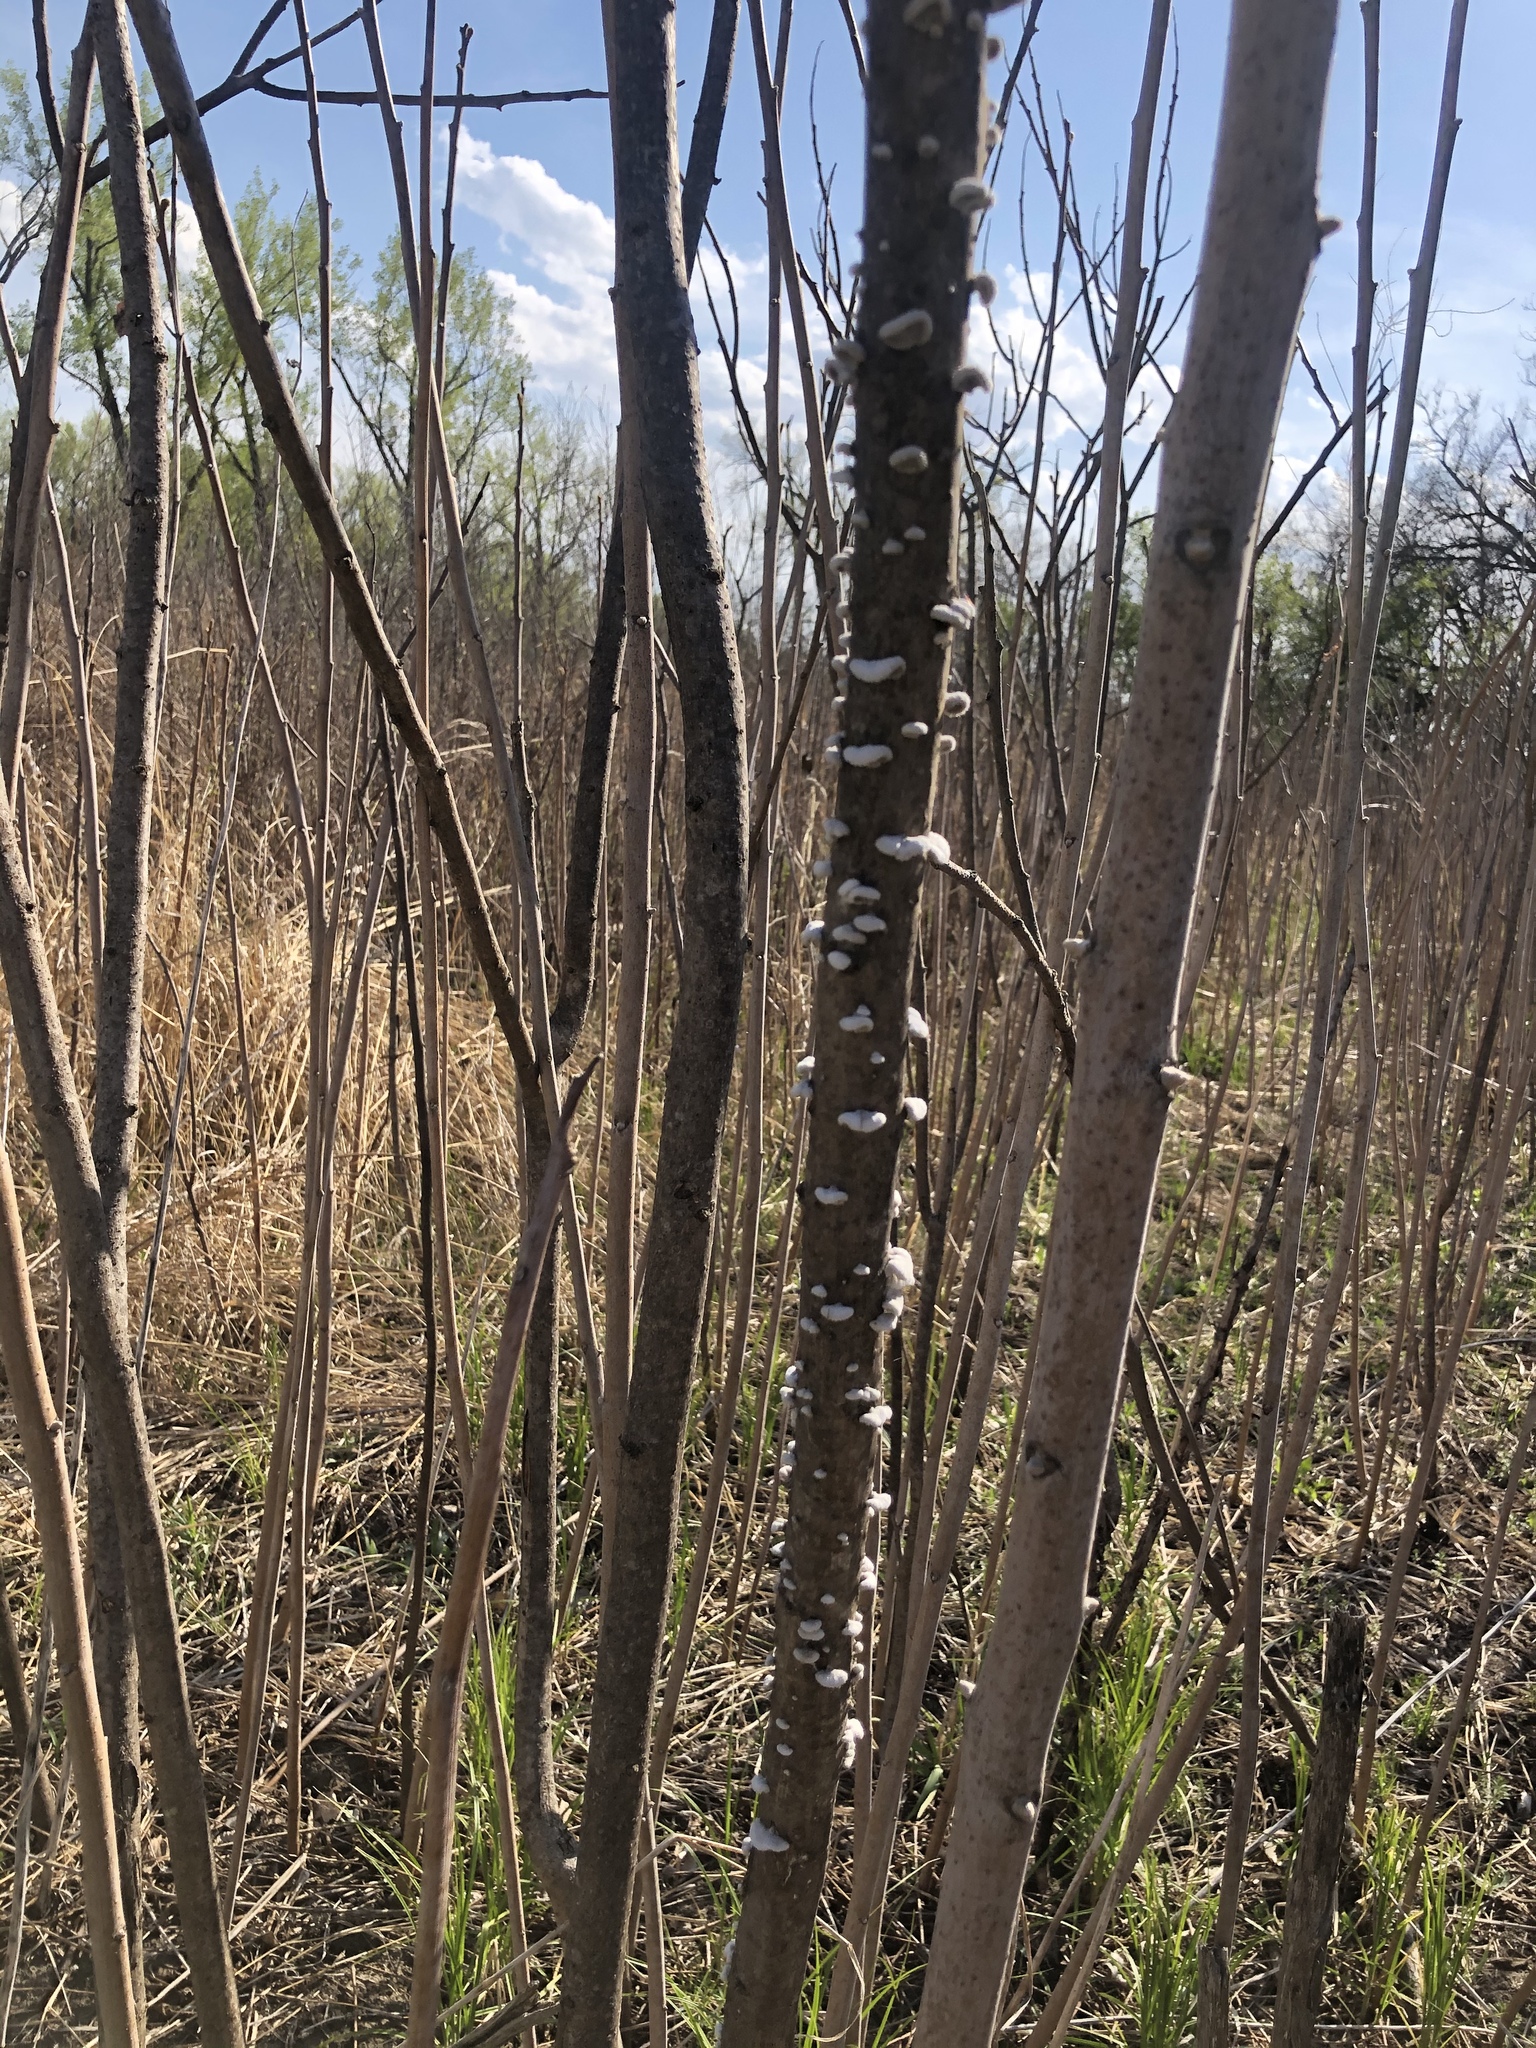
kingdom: Fungi
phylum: Basidiomycota
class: Agaricomycetes
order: Agaricales
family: Schizophyllaceae
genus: Schizophyllum
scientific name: Schizophyllum commune
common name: Common porecrust
